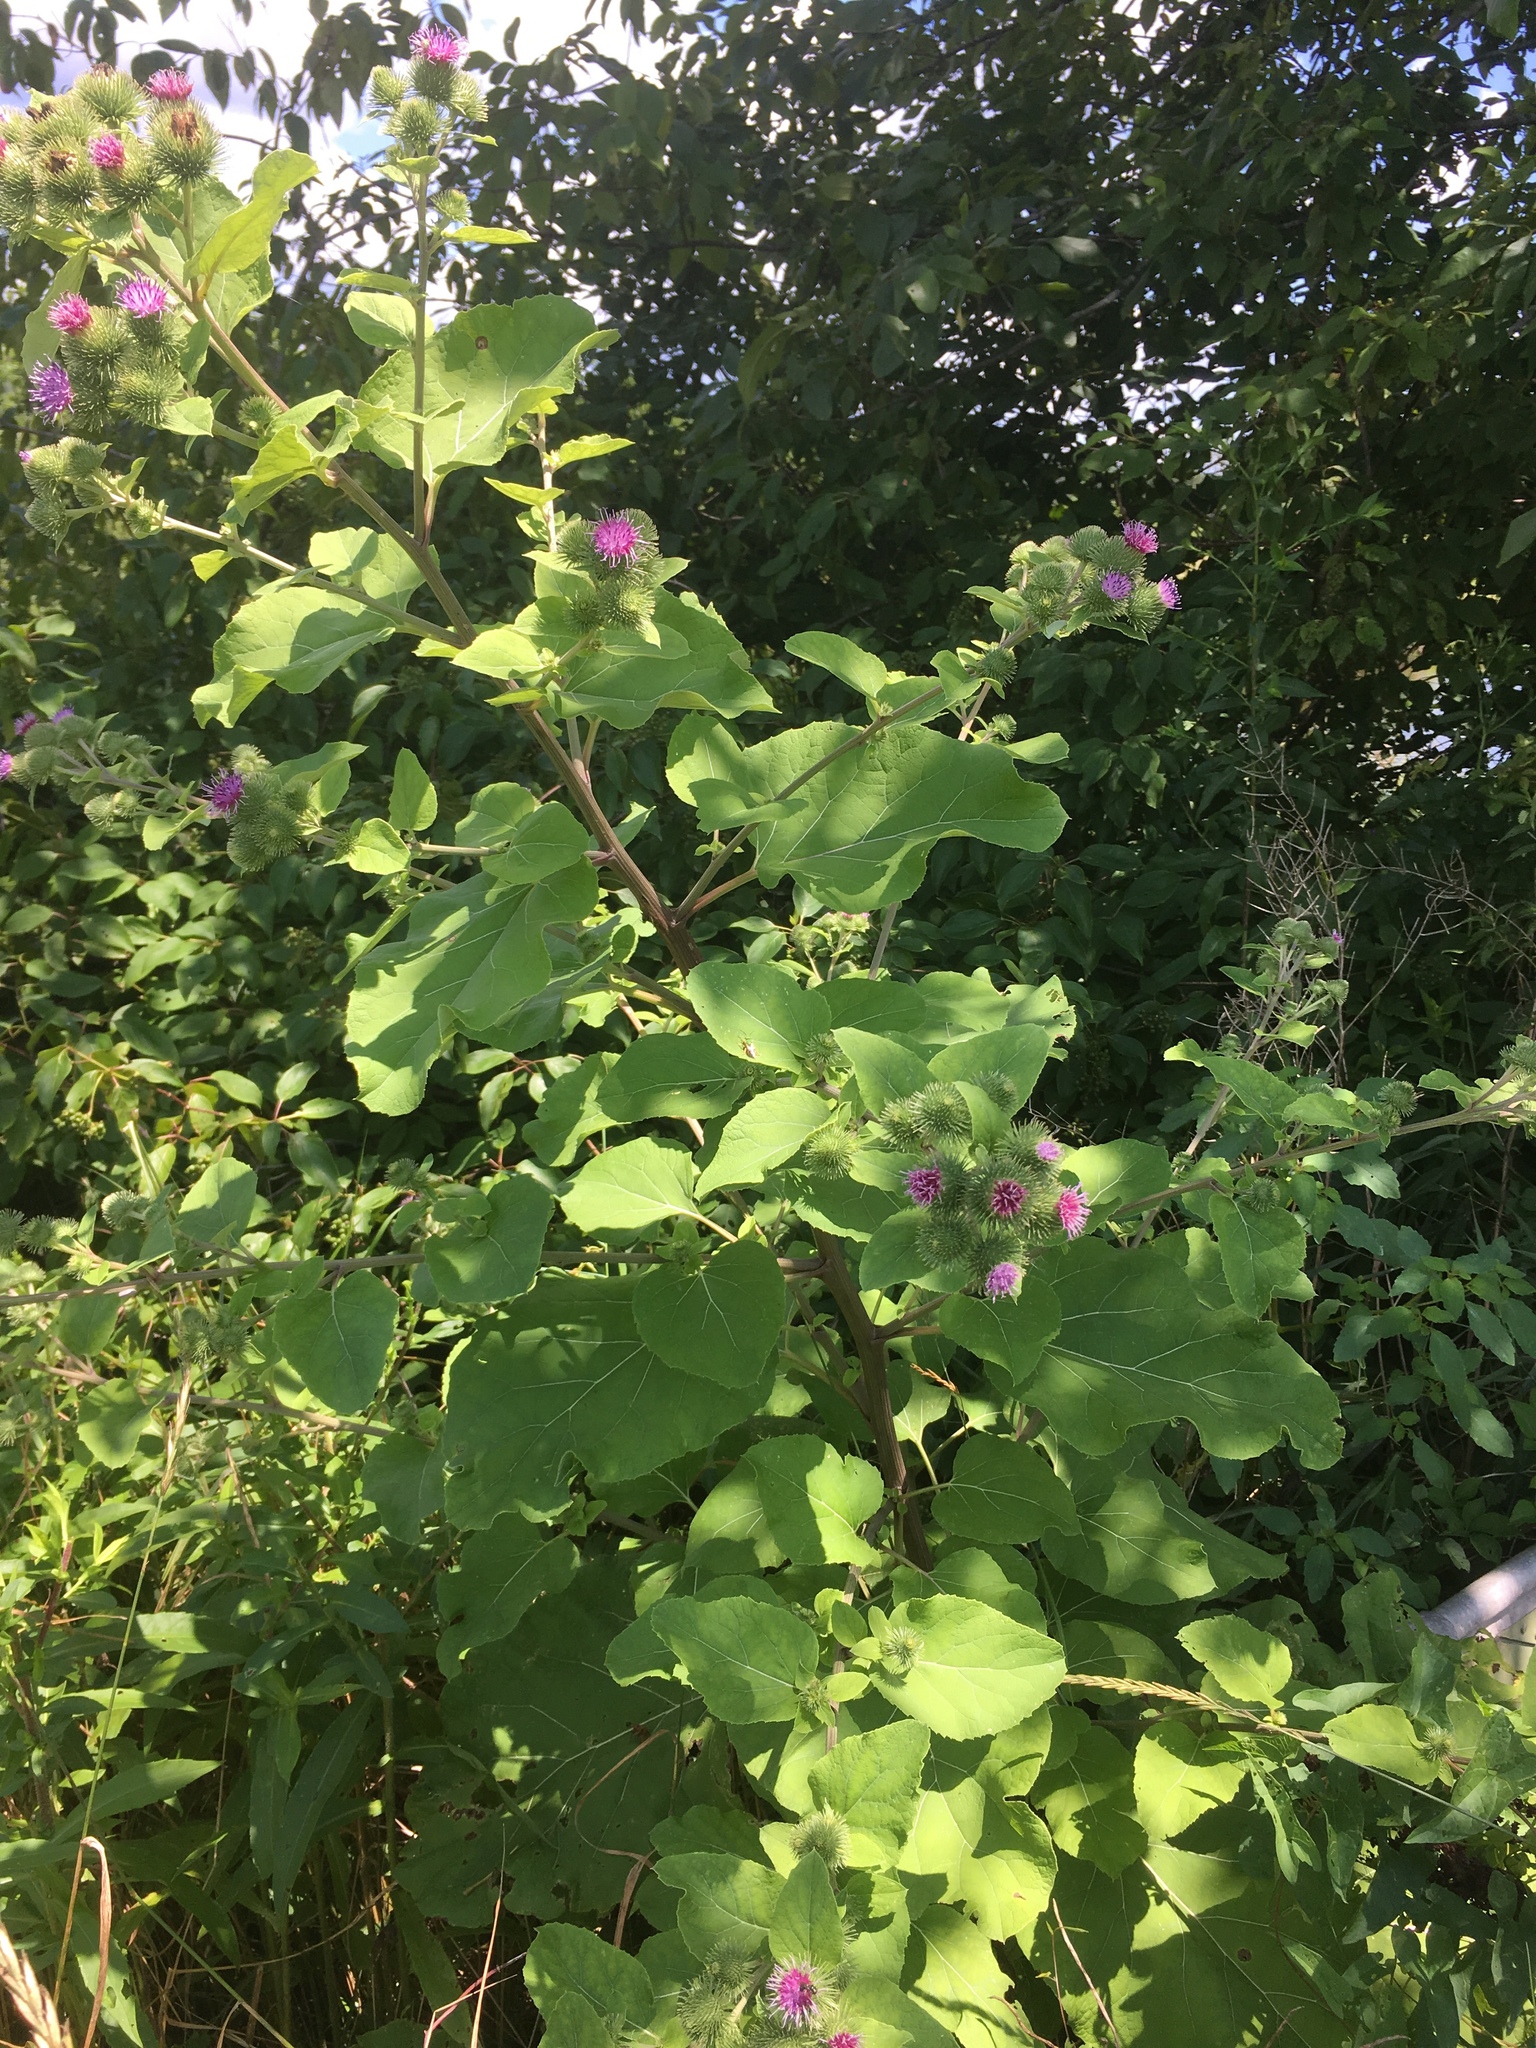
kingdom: Plantae
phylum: Tracheophyta
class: Magnoliopsida
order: Asterales
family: Asteraceae
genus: Arctium
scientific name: Arctium lappa
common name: Greater burdock
